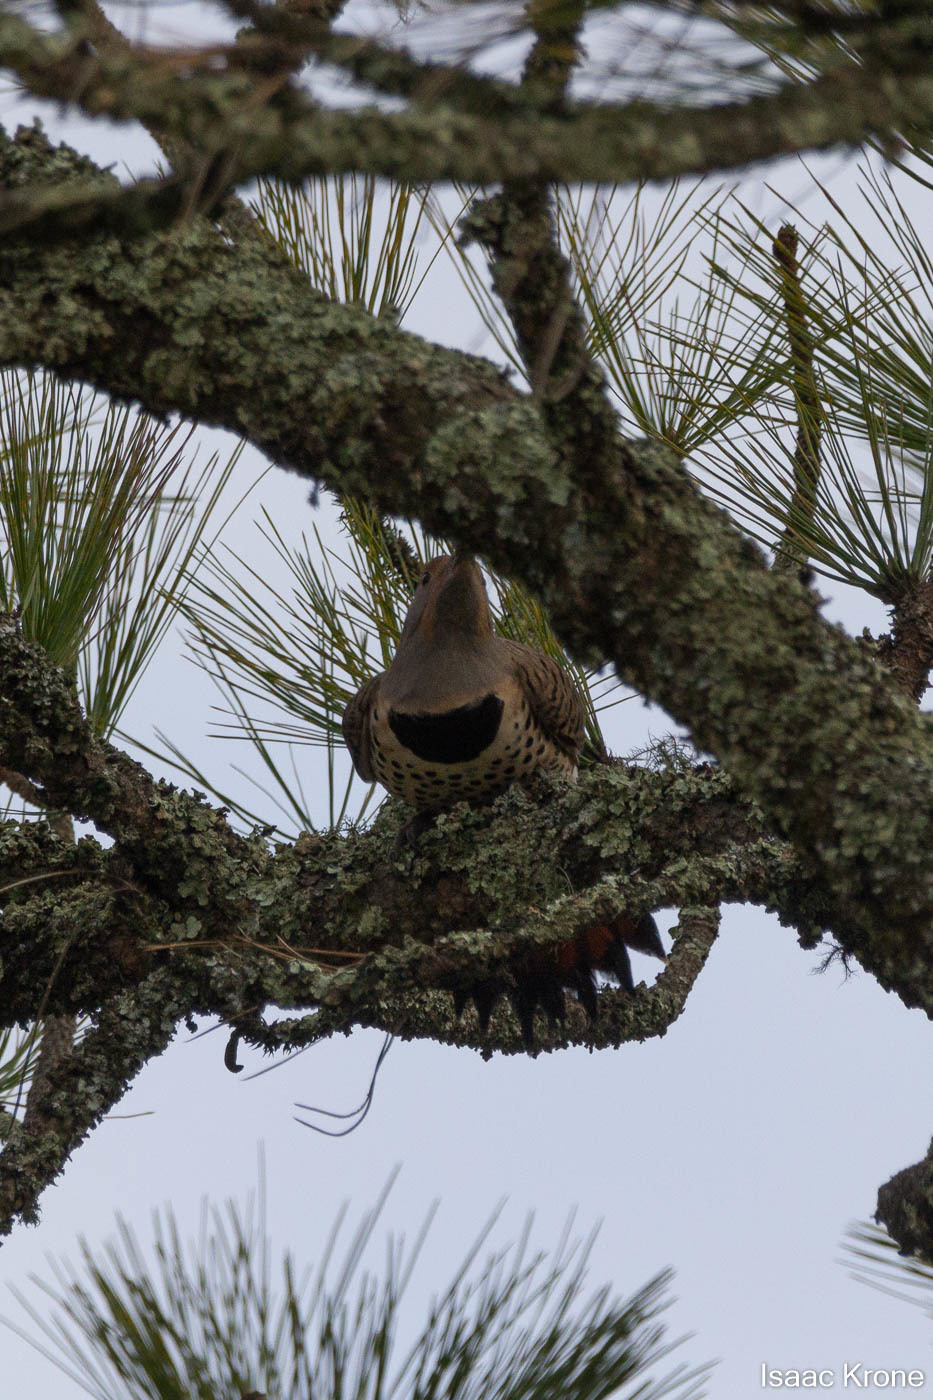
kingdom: Animalia
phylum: Chordata
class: Aves
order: Piciformes
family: Picidae
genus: Colaptes
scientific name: Colaptes auratus
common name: Northern flicker
